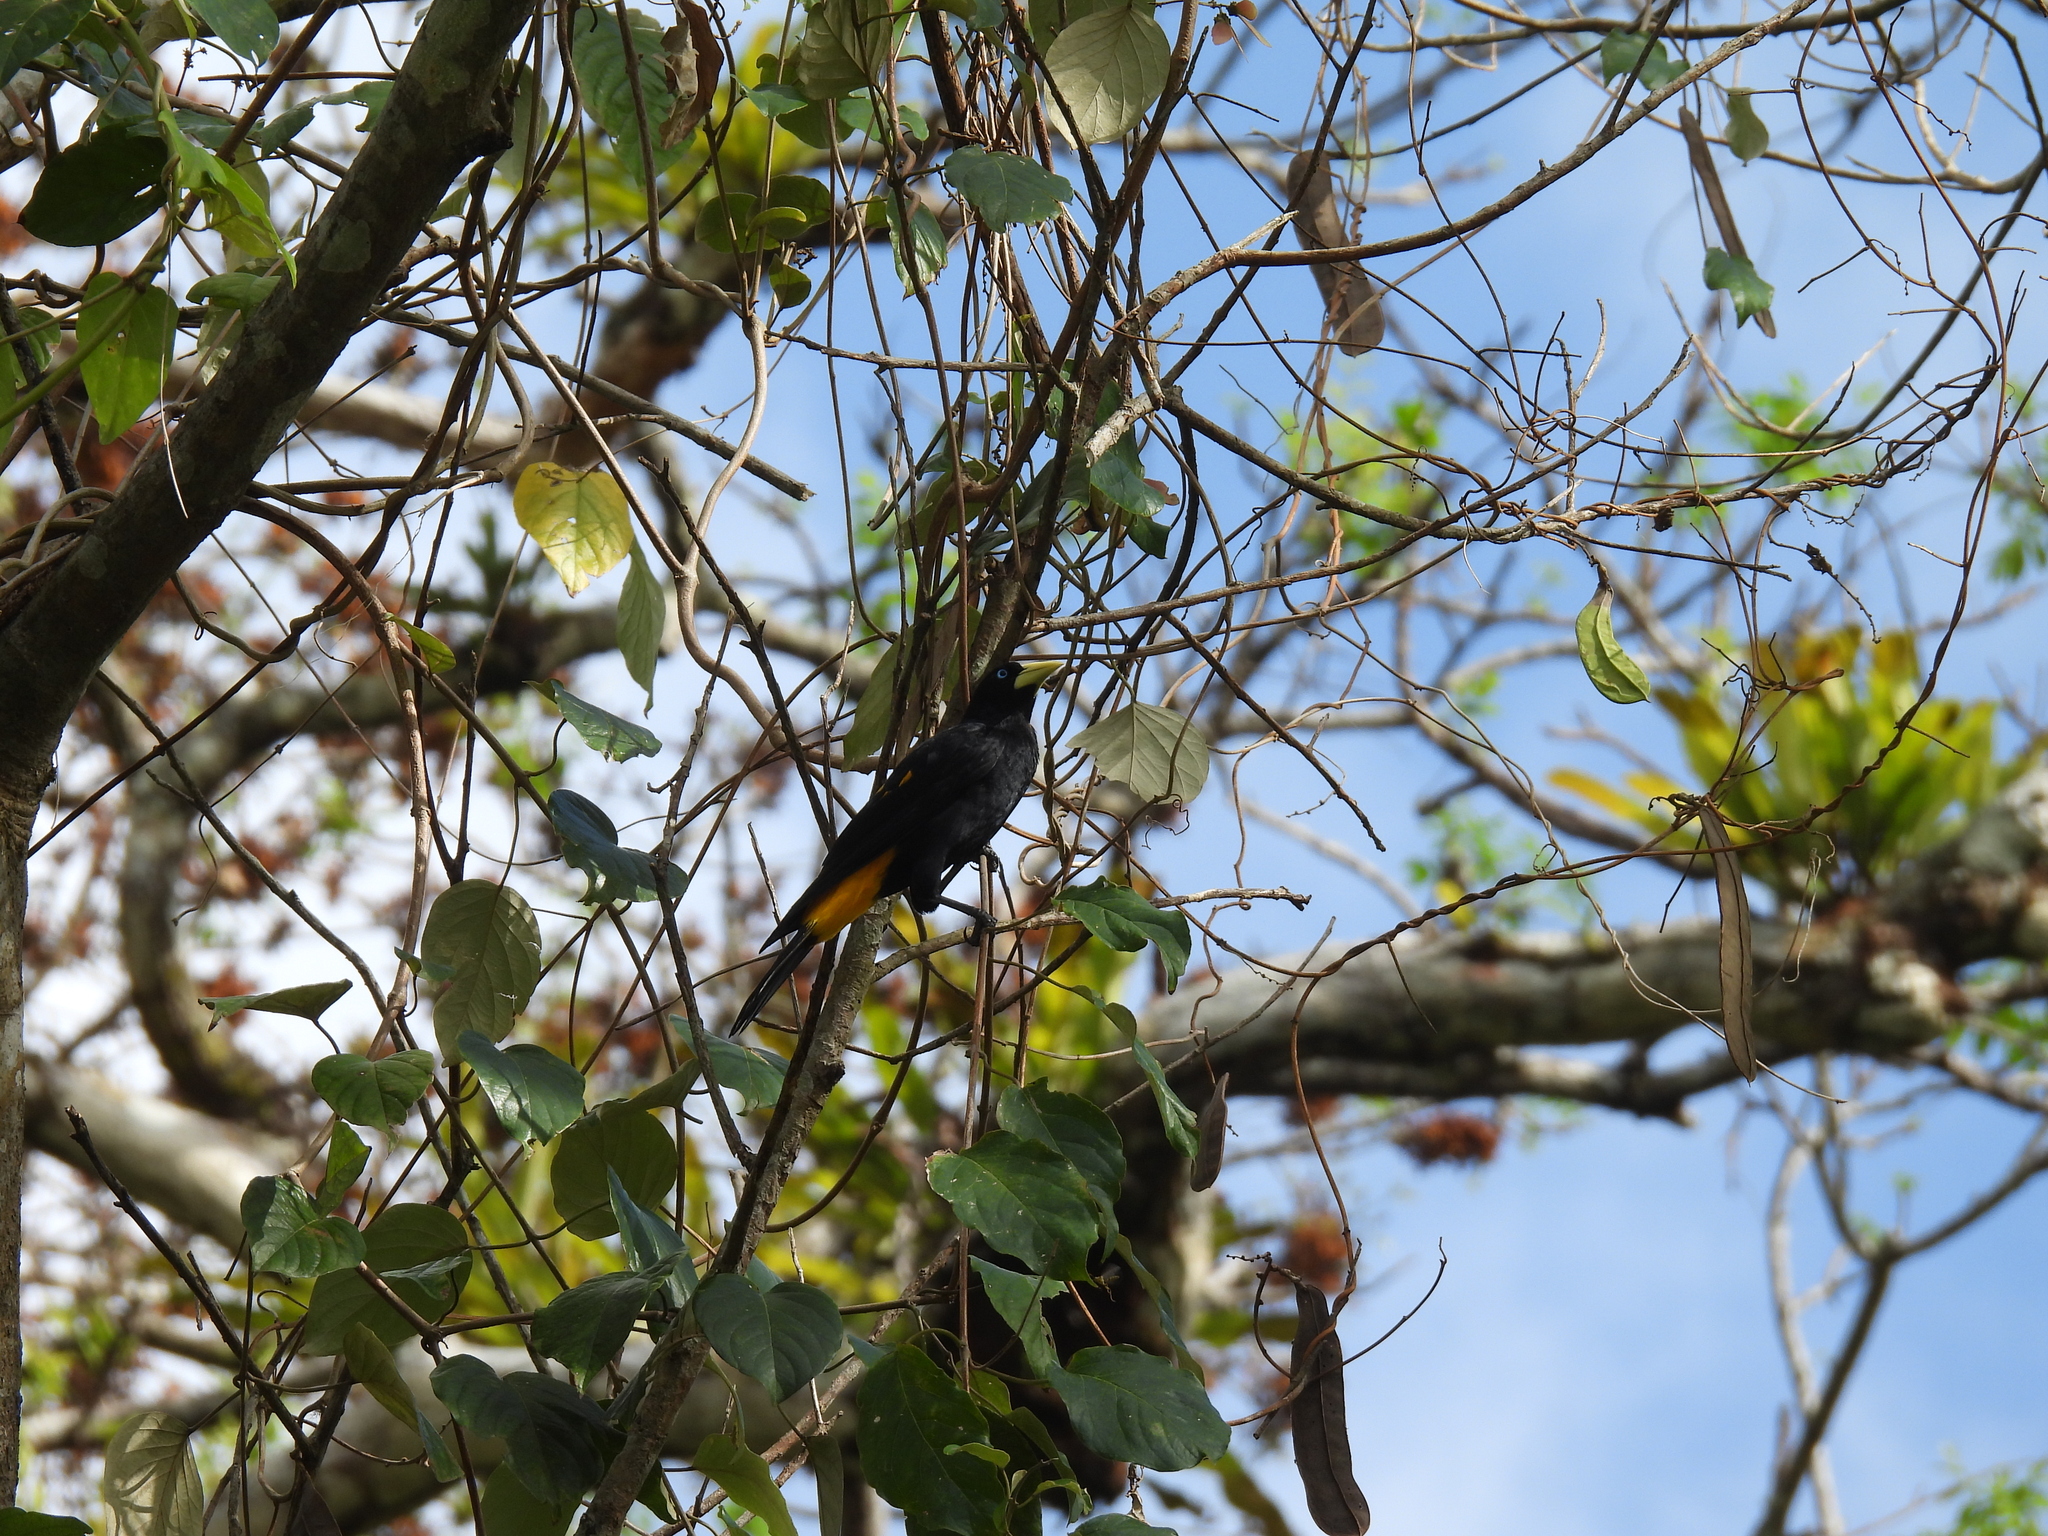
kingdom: Animalia
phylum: Chordata
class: Aves
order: Passeriformes
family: Icteridae
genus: Cacicus
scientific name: Cacicus cela
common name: Yellow-rumped cacique
